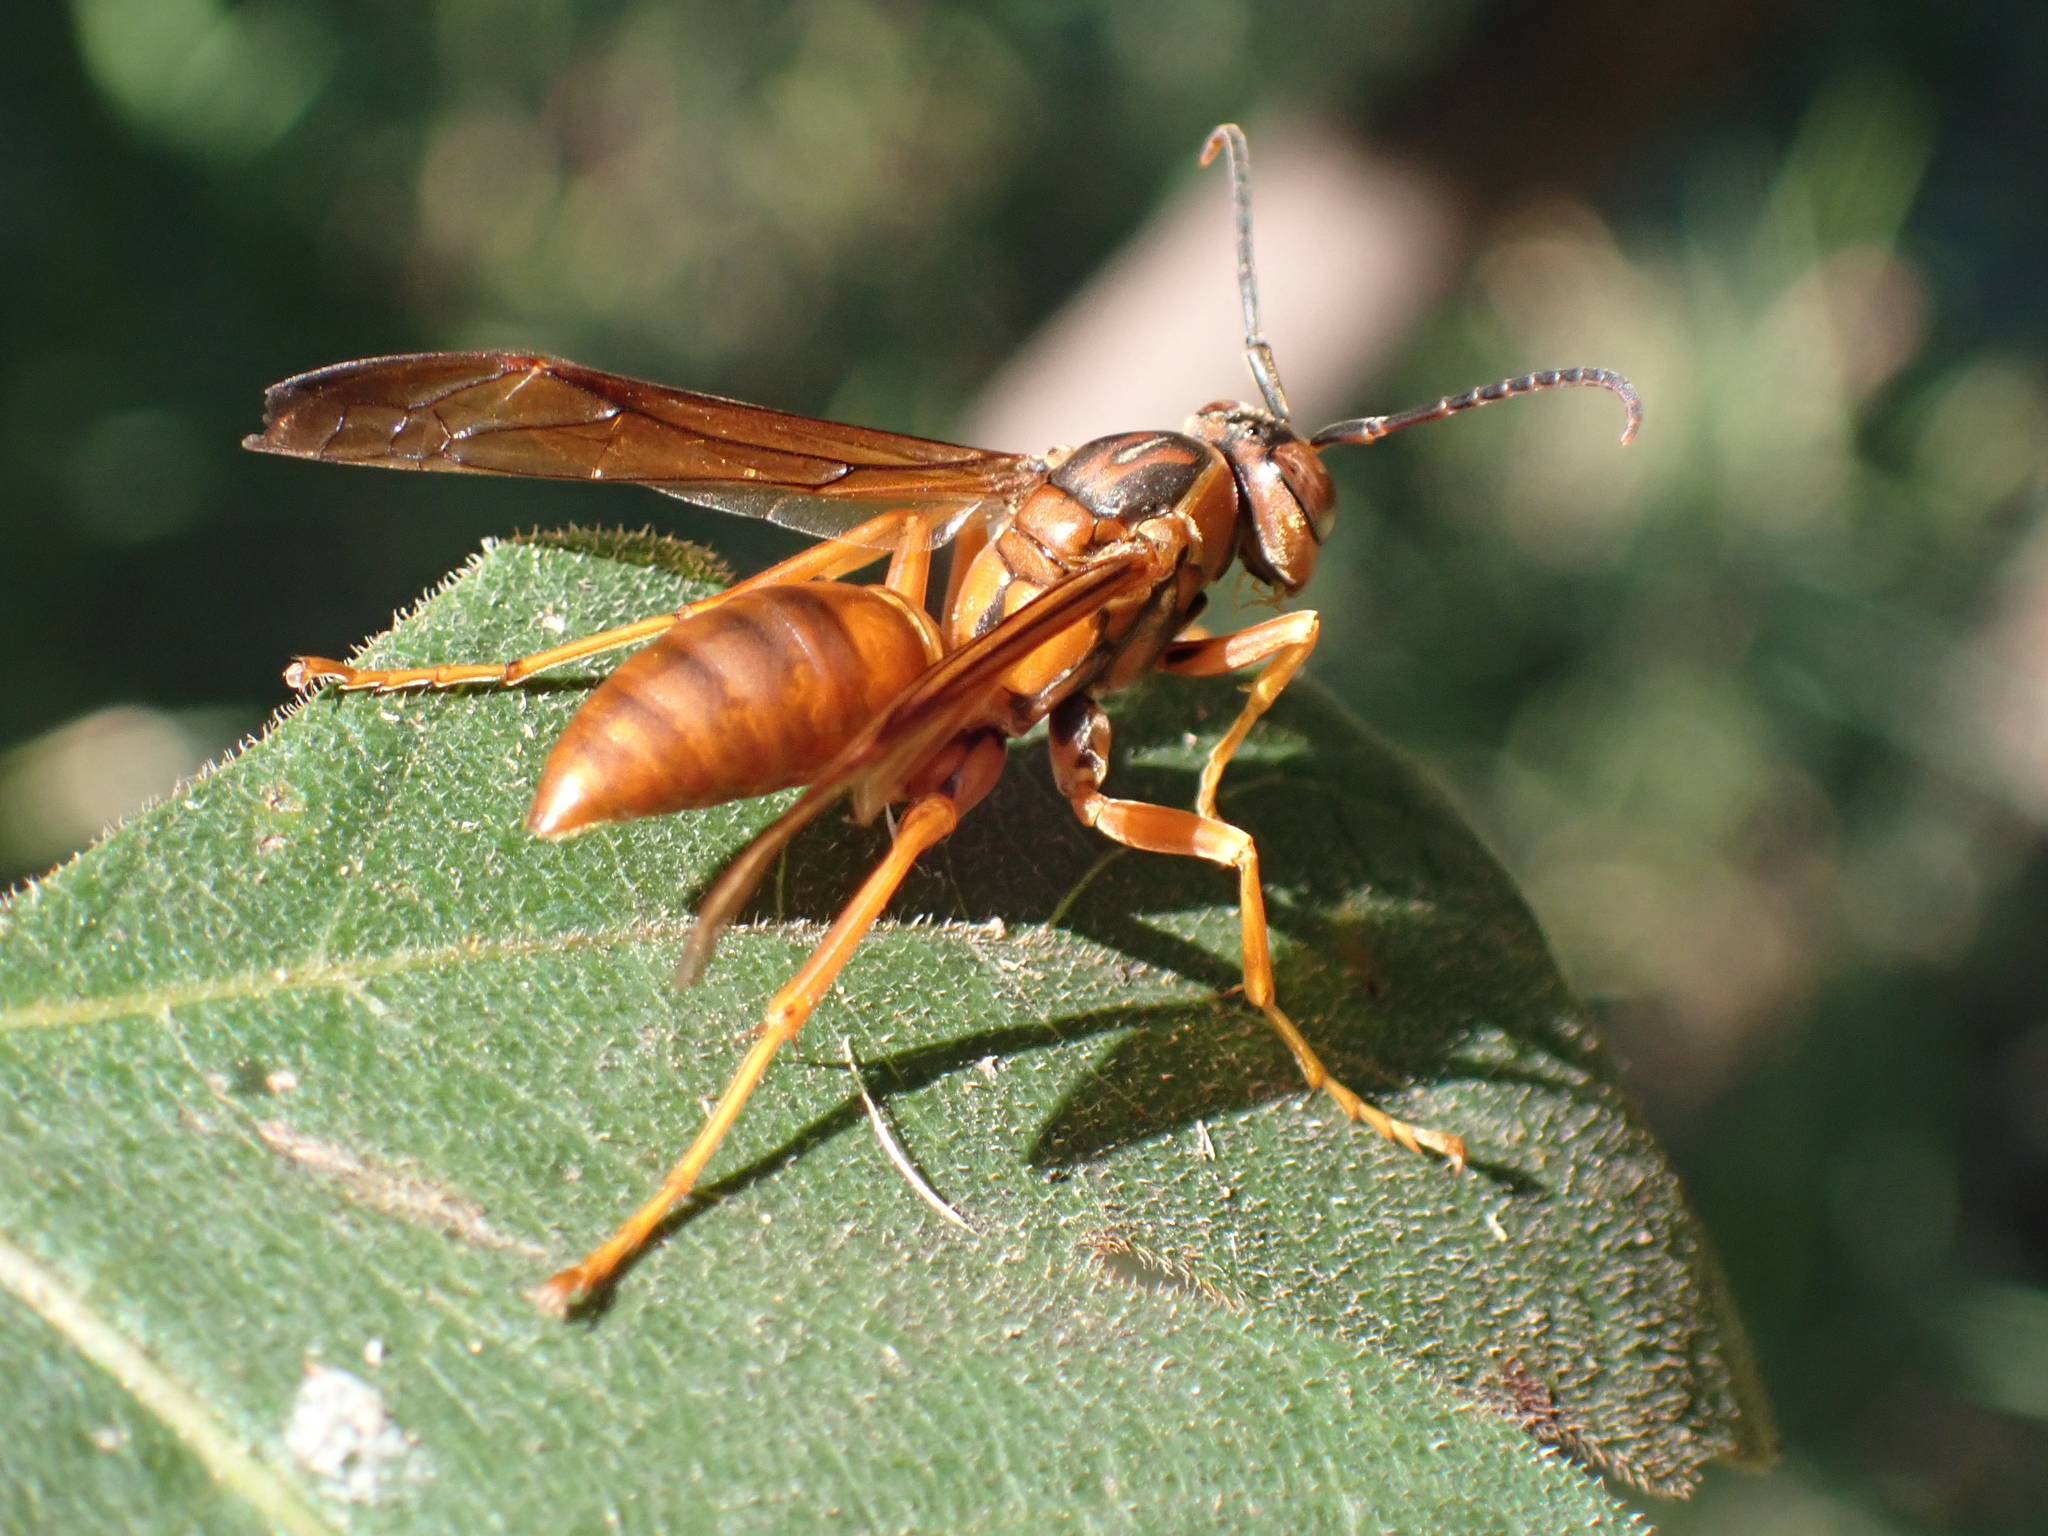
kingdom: Animalia
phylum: Arthropoda
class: Insecta
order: Hymenoptera
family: Eumenidae
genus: Polistes
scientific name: Polistes carolina
